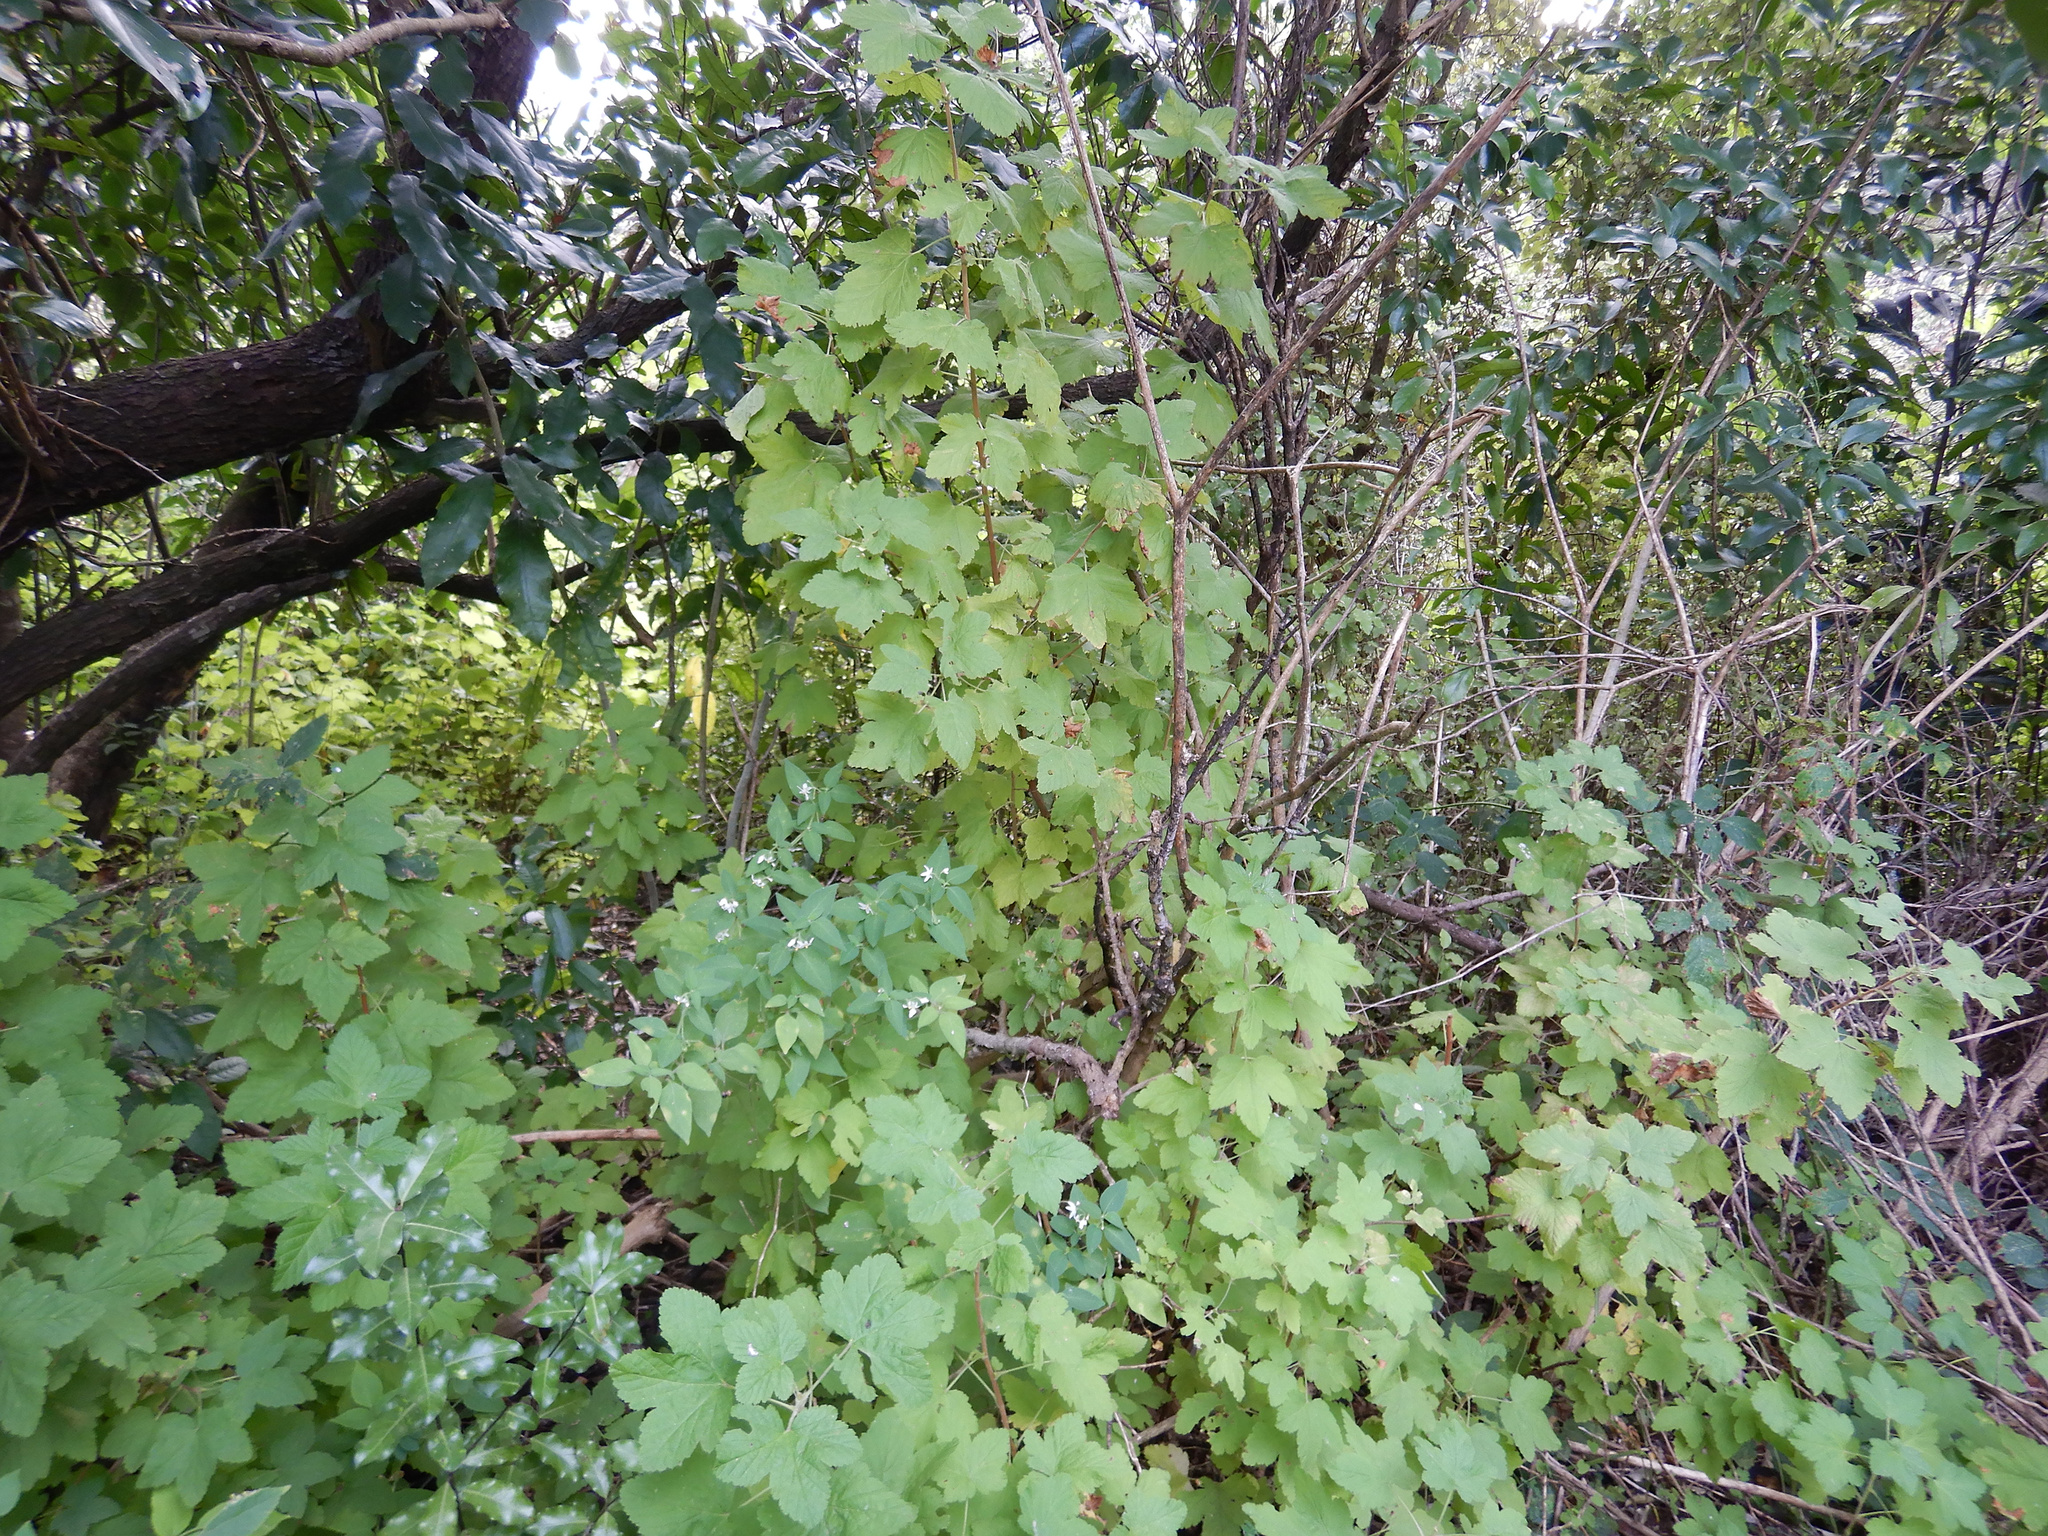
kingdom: Plantae
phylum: Tracheophyta
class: Magnoliopsida
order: Saxifragales
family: Grossulariaceae
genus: Ribes
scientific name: Ribes sanguineum
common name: Flowering currant
